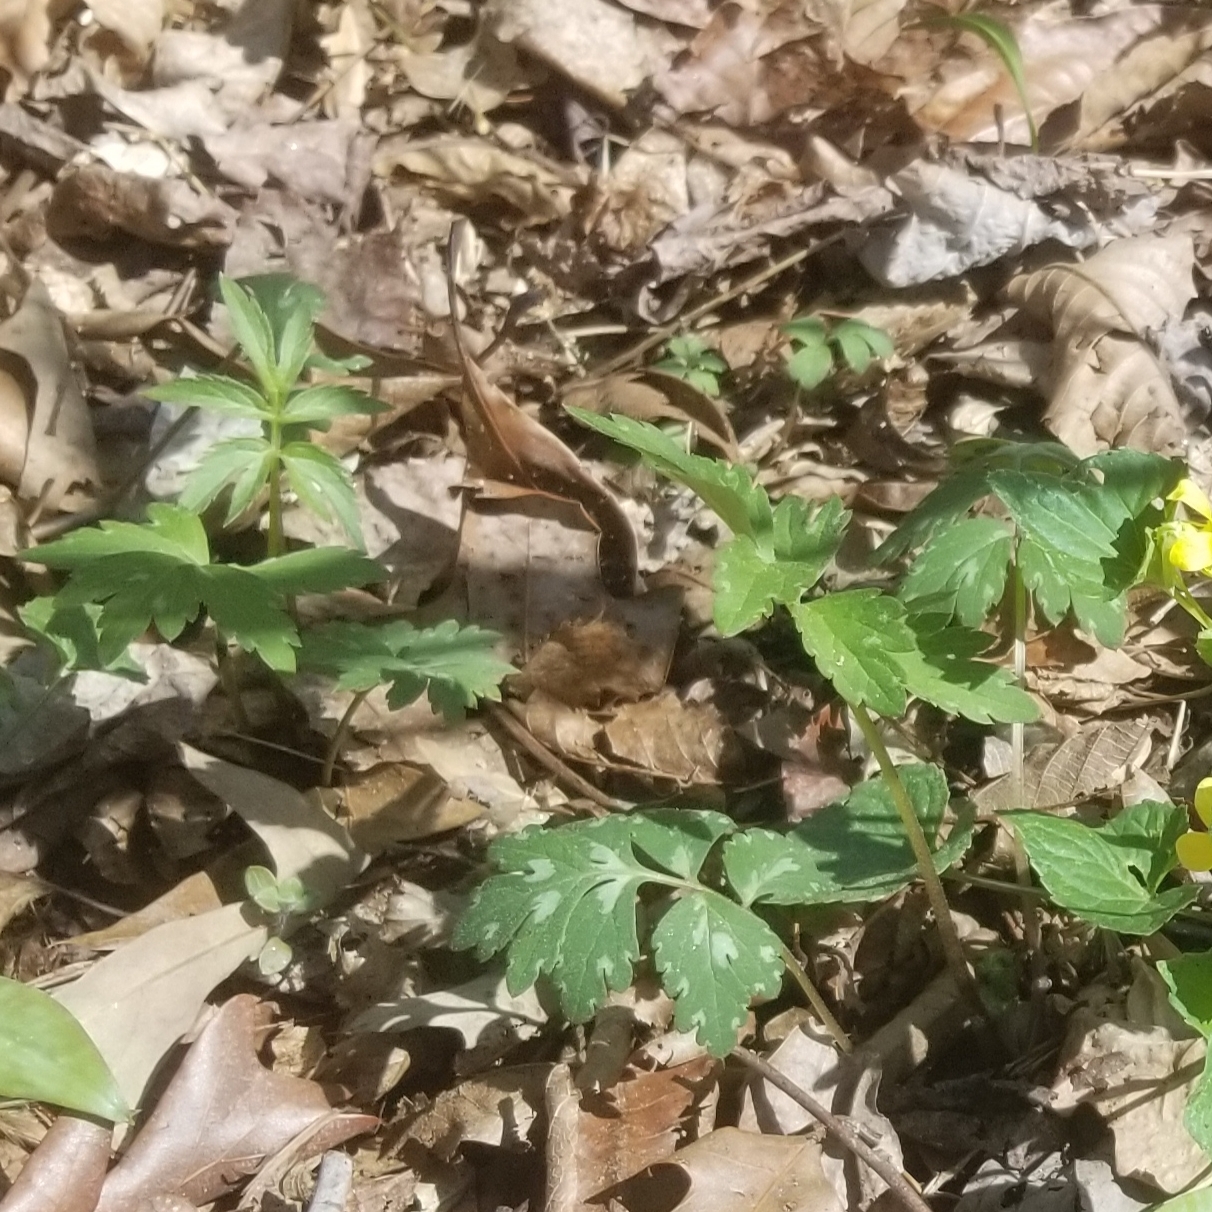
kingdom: Plantae
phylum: Tracheophyta
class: Magnoliopsida
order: Boraginales
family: Hydrophyllaceae
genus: Hydrophyllum
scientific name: Hydrophyllum virginianum
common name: Virginia waterleaf
